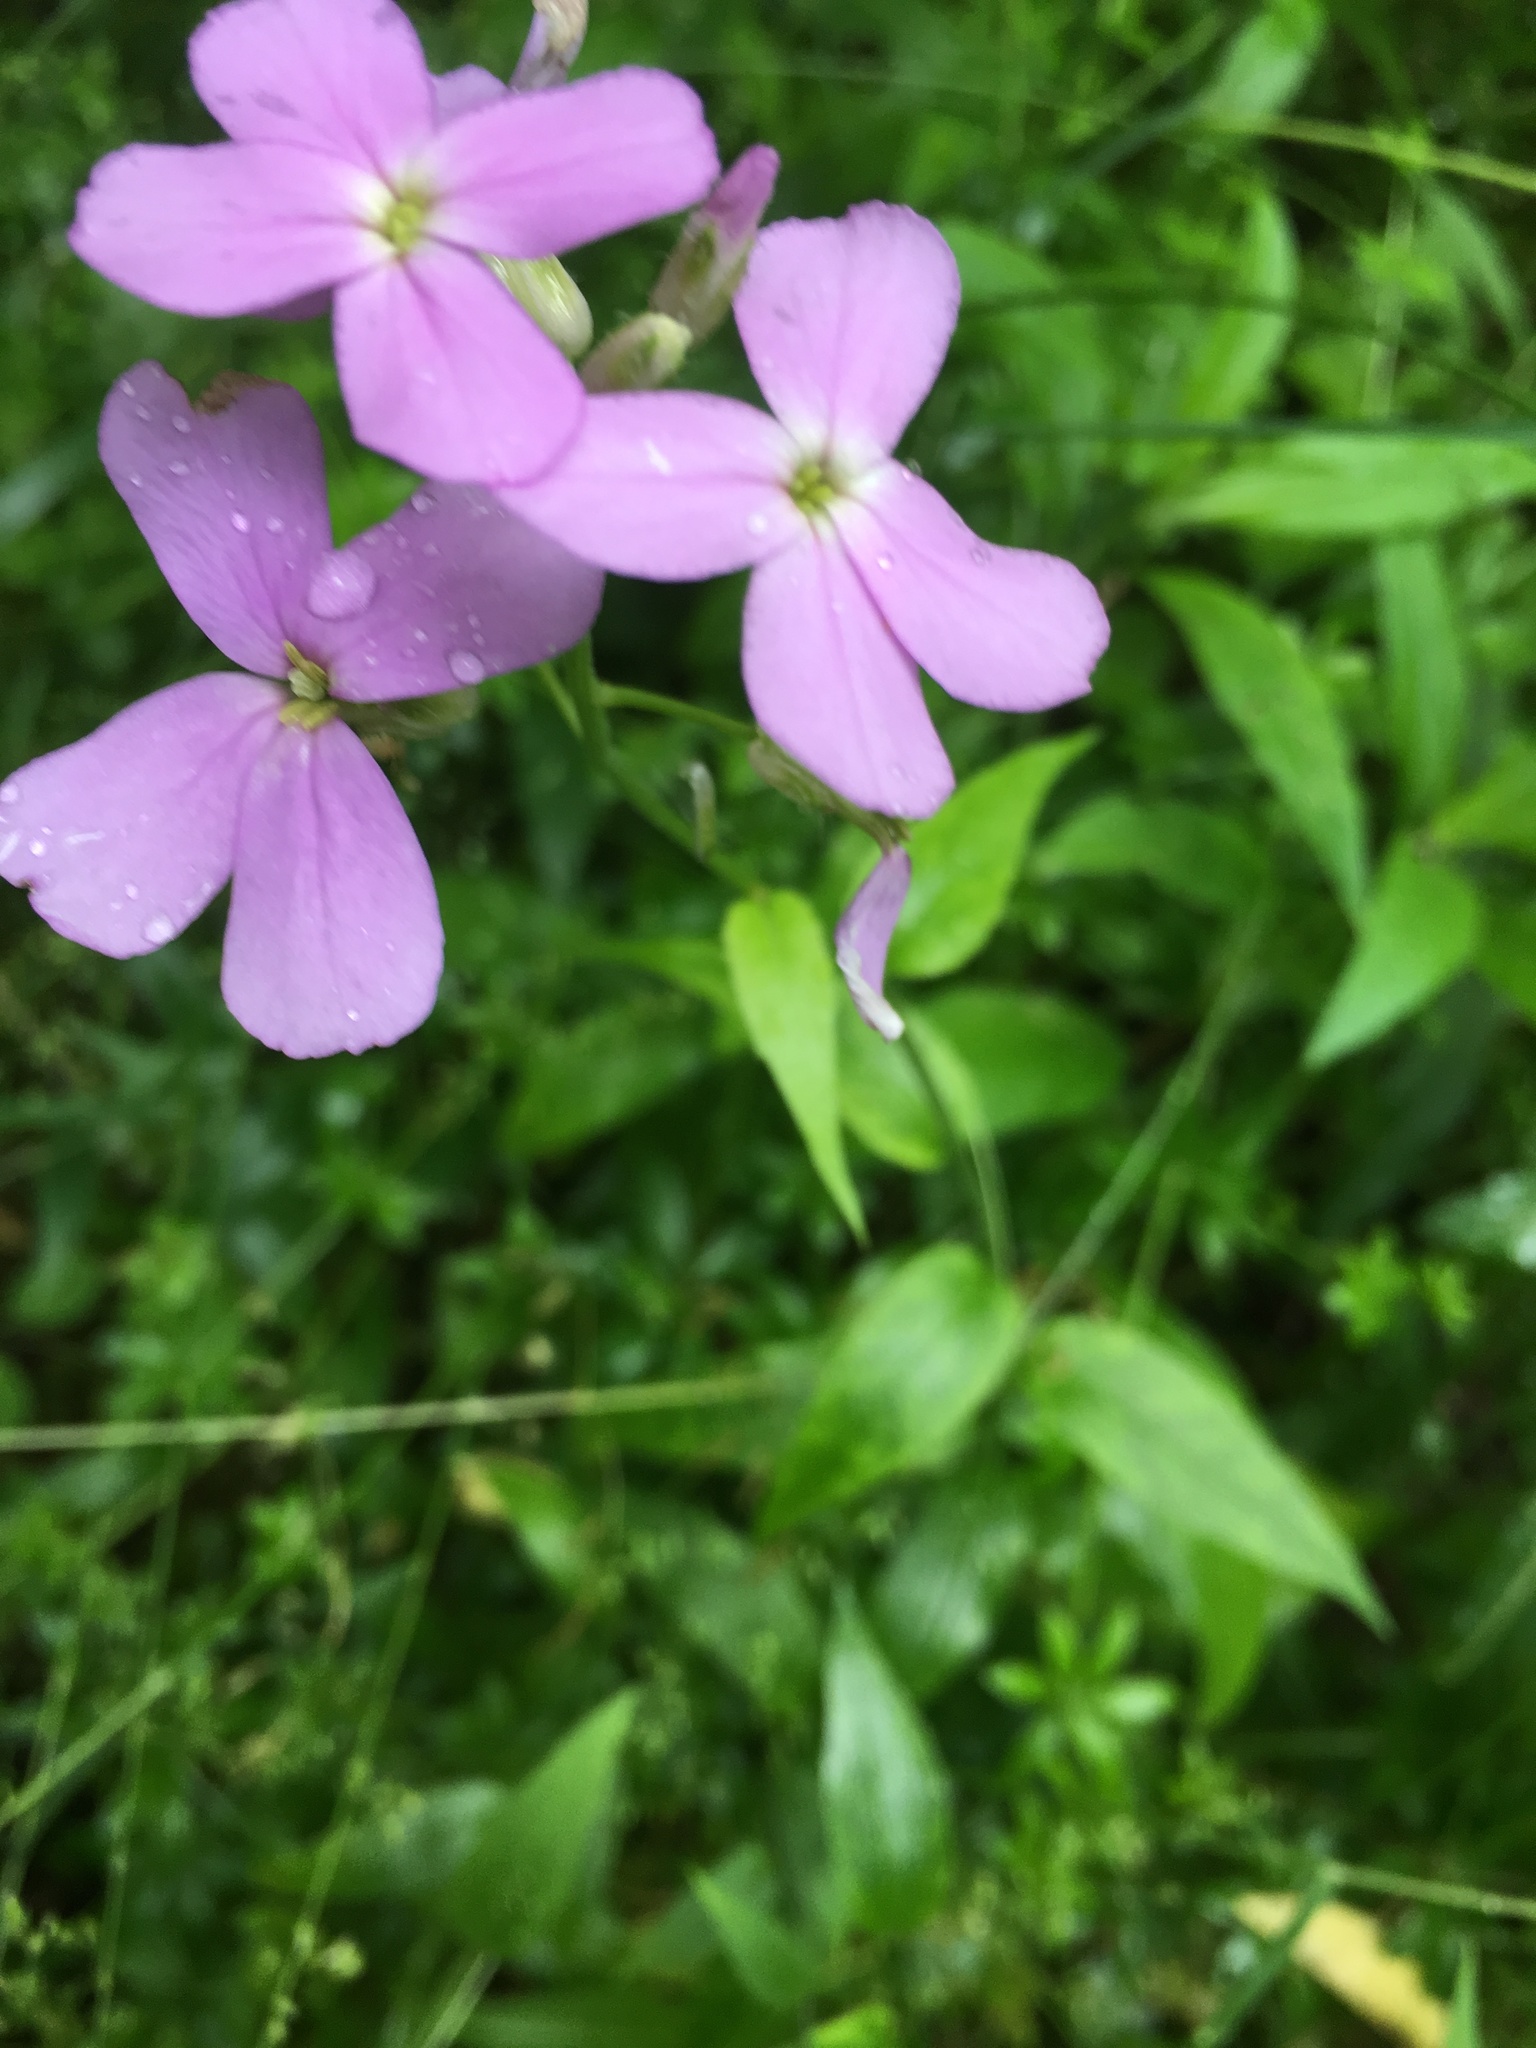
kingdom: Plantae
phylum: Tracheophyta
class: Magnoliopsida
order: Brassicales
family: Brassicaceae
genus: Hesperis
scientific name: Hesperis matronalis
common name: Dame's-violet
